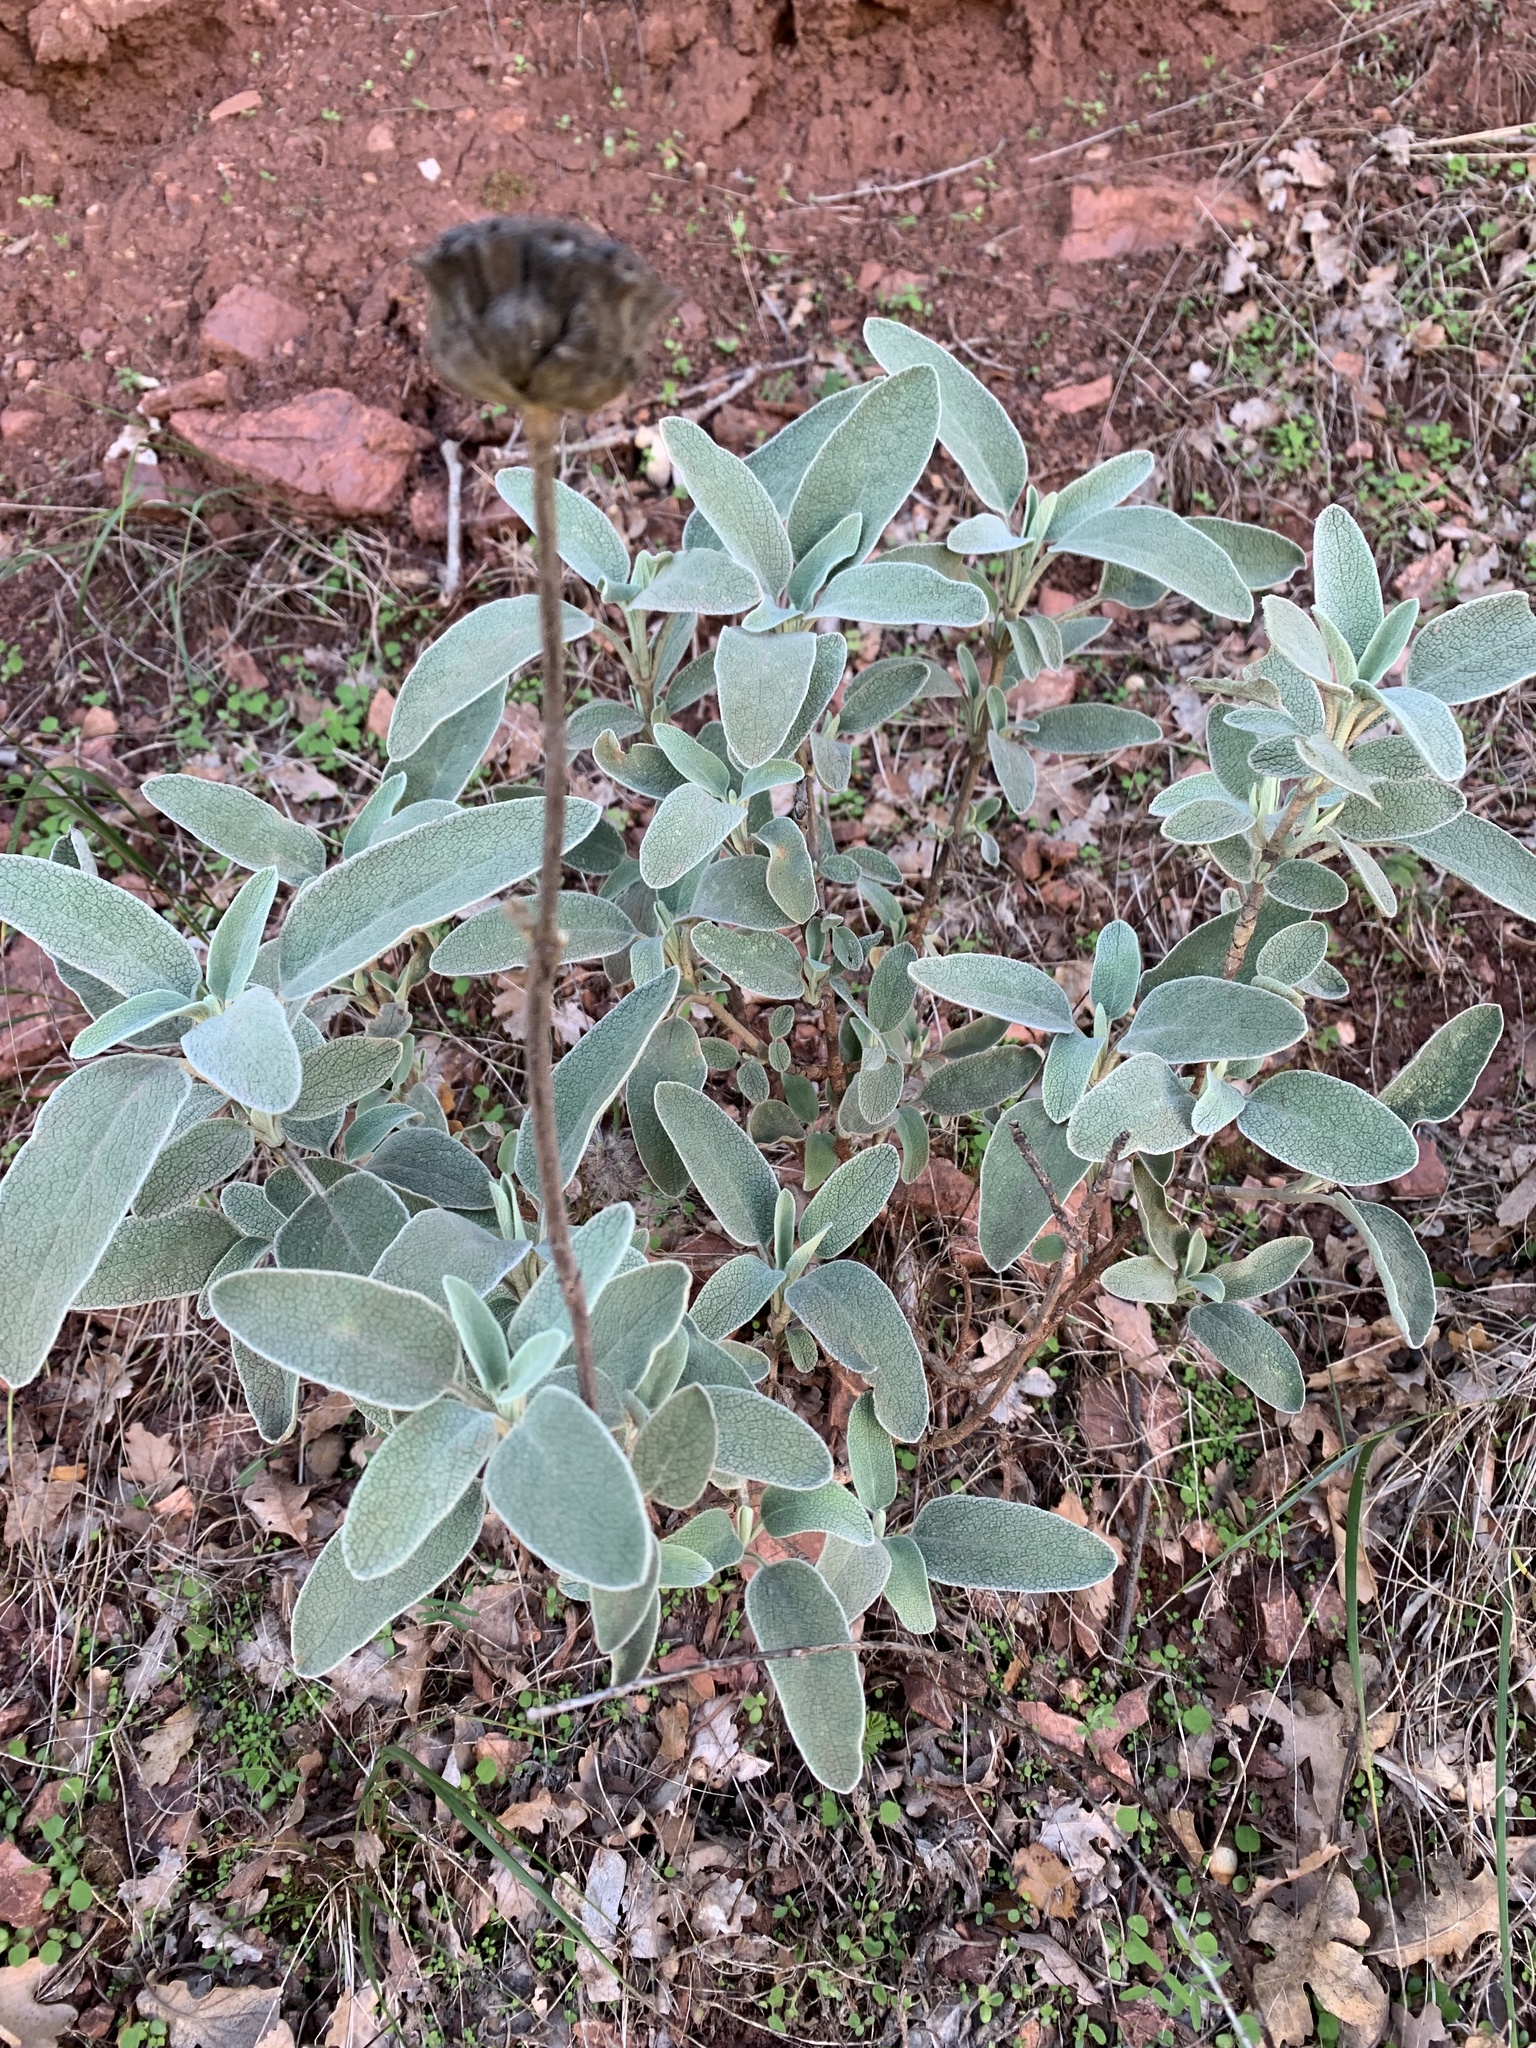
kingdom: Plantae
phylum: Tracheophyta
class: Magnoliopsida
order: Lamiales
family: Lamiaceae
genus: Phlomis
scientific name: Phlomis fruticosa
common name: Jerusalem sage
